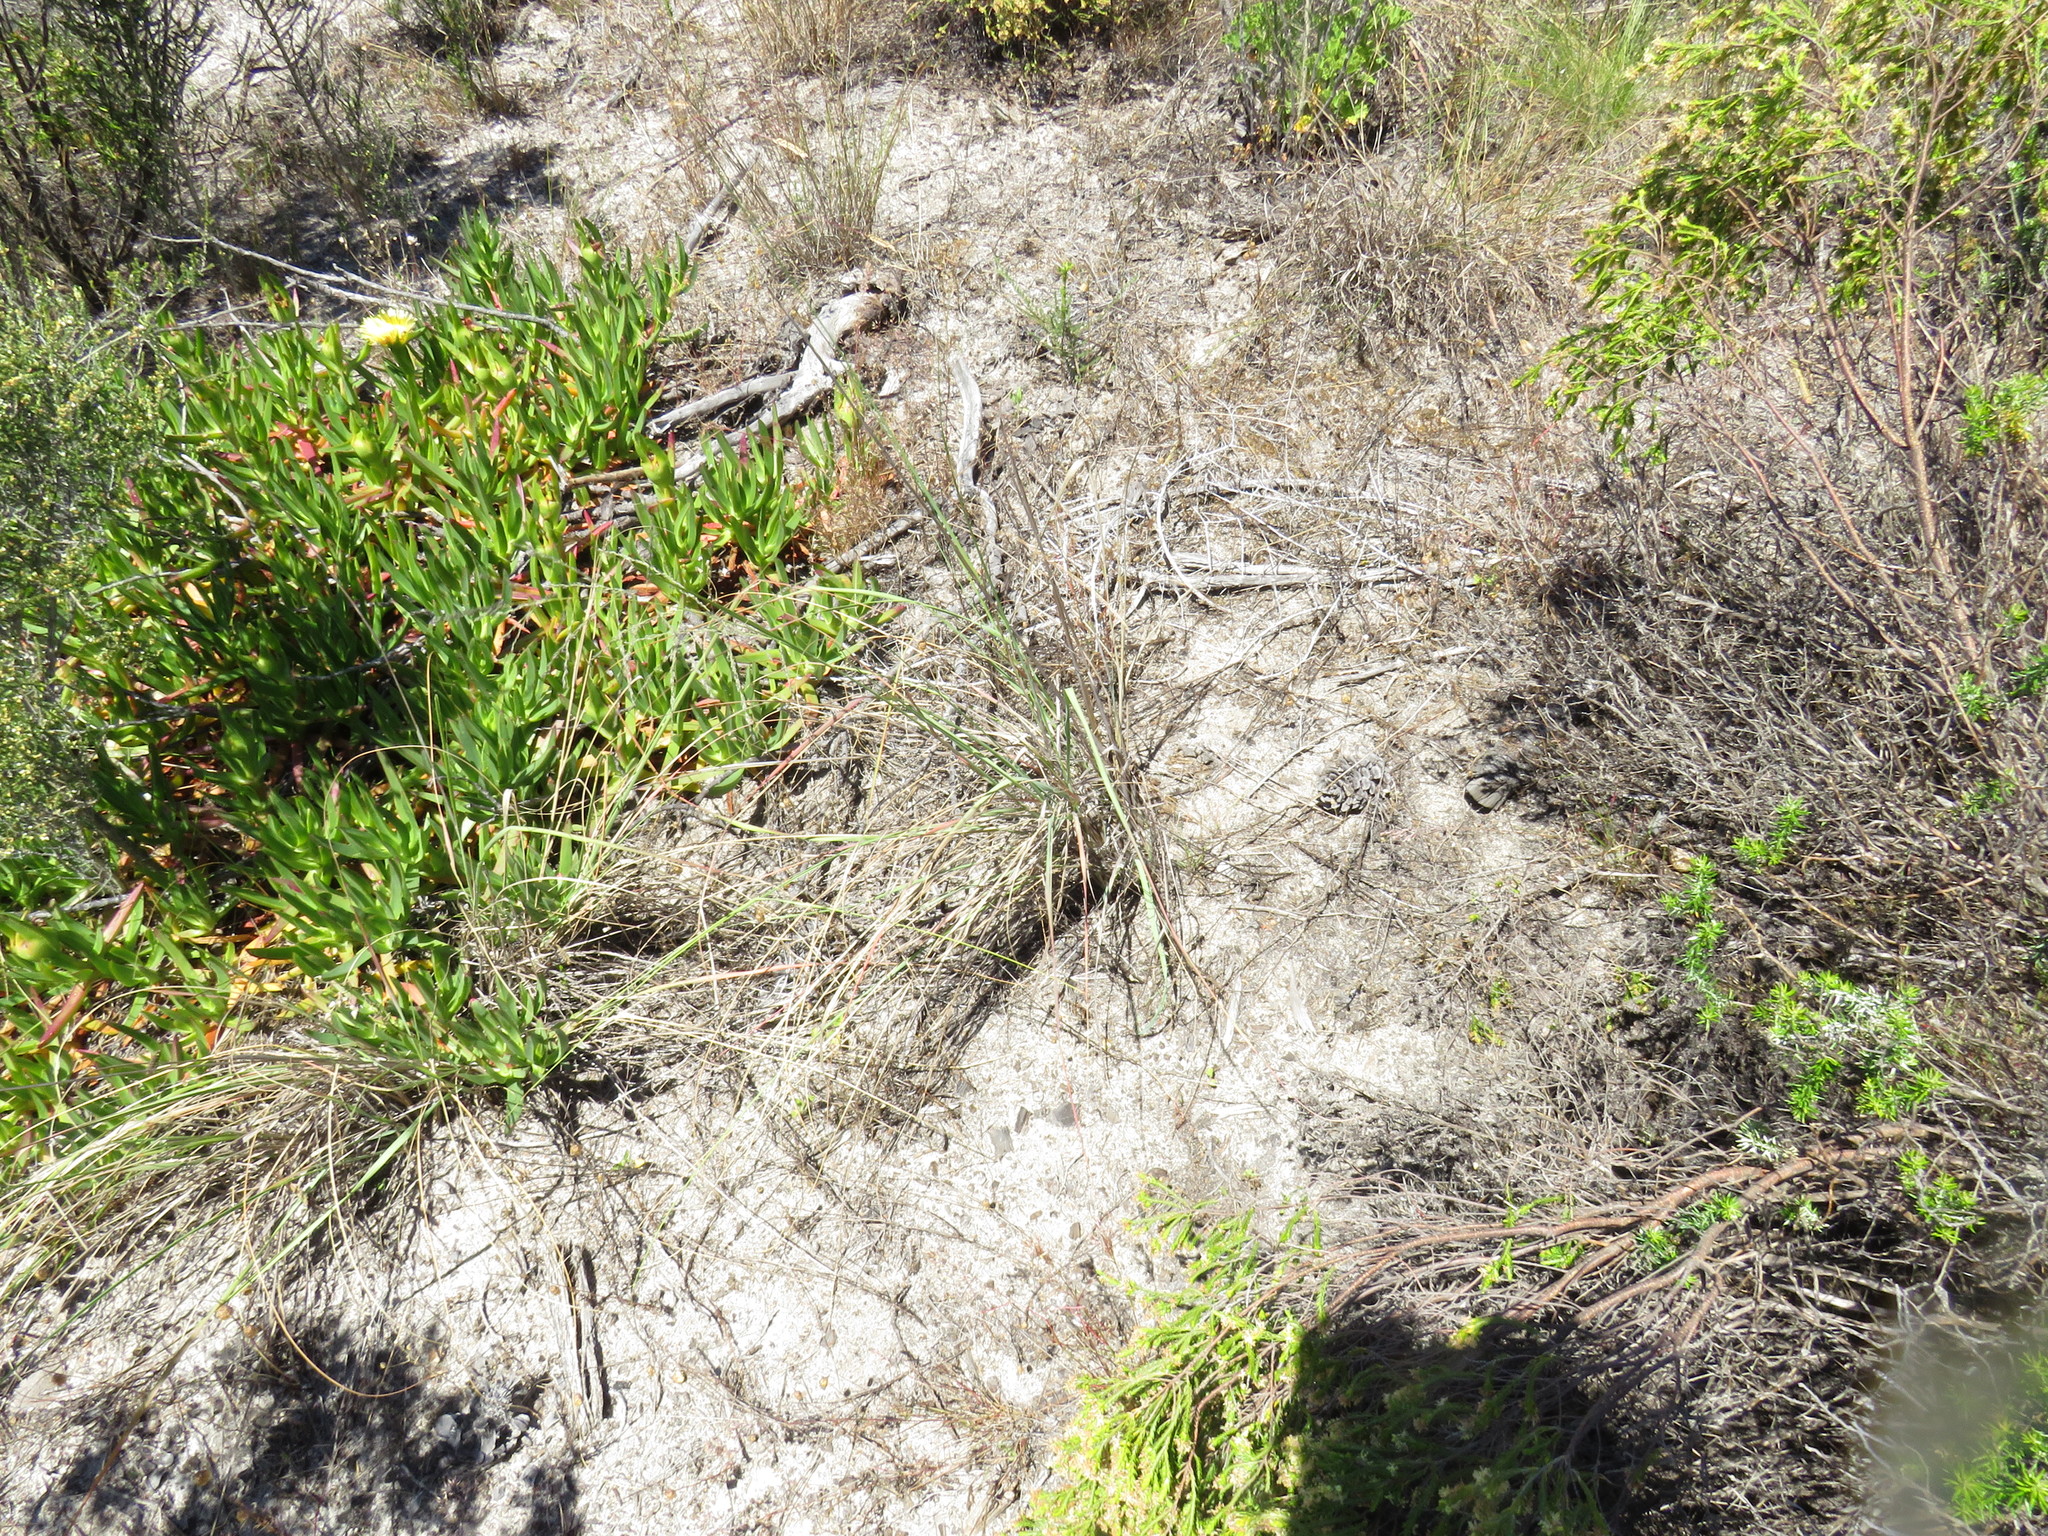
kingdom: Plantae
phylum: Tracheophyta
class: Liliopsida
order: Poales
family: Poaceae
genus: Eragrostis
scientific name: Eragrostis curvula
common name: African love-grass
